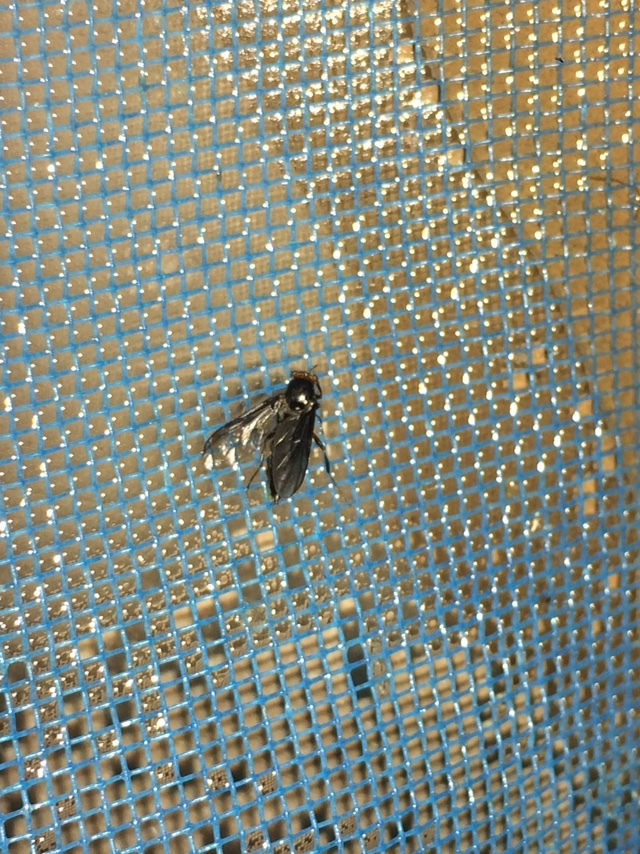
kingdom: Animalia
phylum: Arthropoda
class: Insecta
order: Diptera
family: Stratiomyidae
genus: Inopus
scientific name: Inopus rubriceps
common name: Soldier fly
